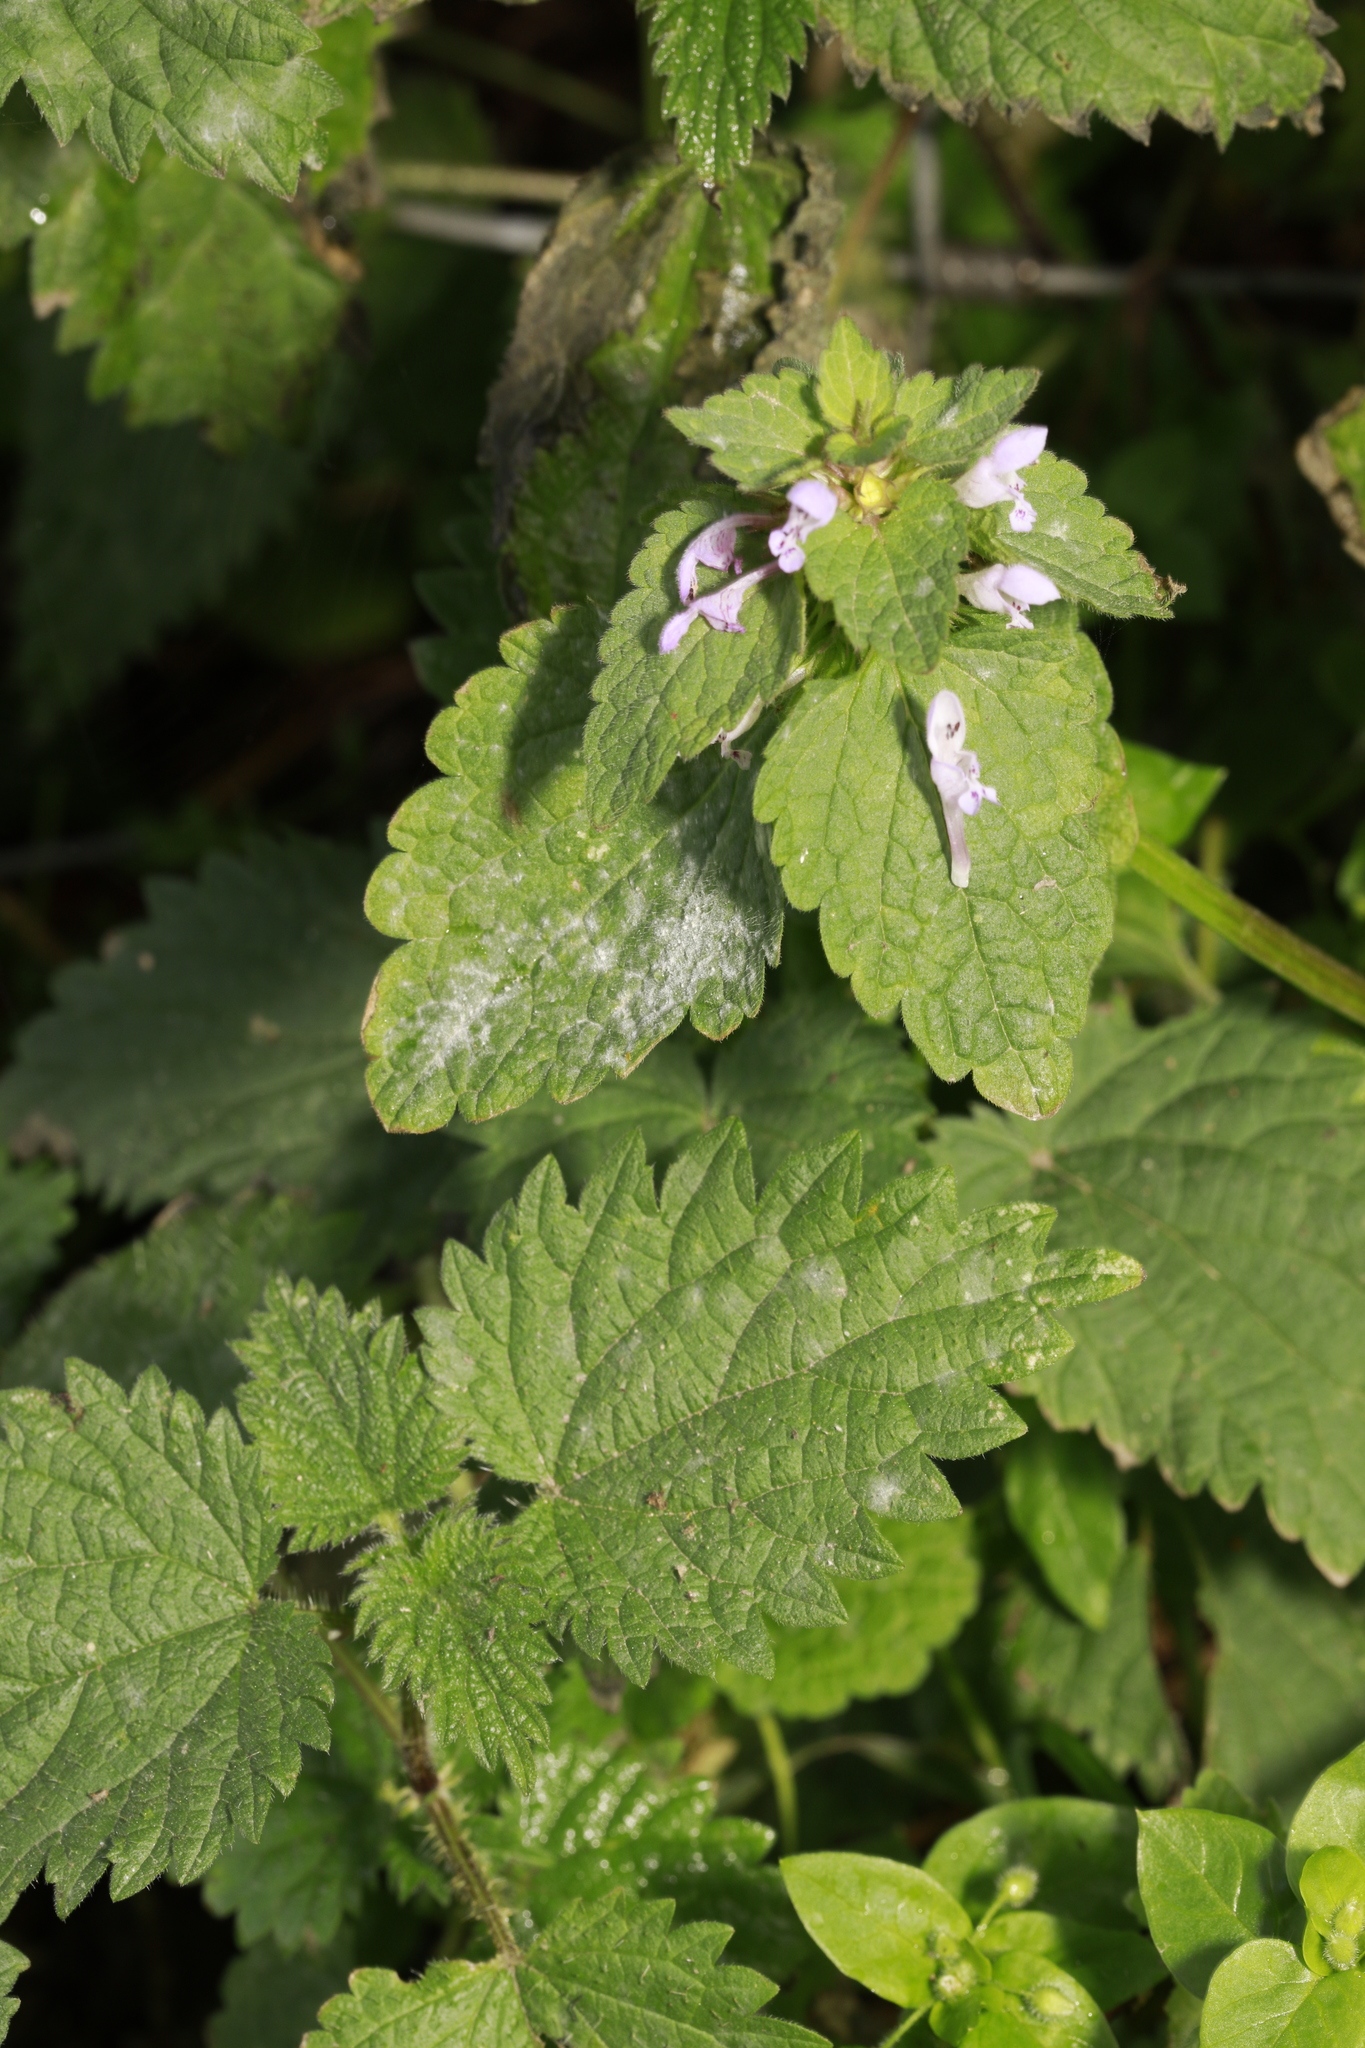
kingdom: Plantae
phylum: Tracheophyta
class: Magnoliopsida
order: Lamiales
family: Lamiaceae
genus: Lamium
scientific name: Lamium purpureum
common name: Red dead-nettle
